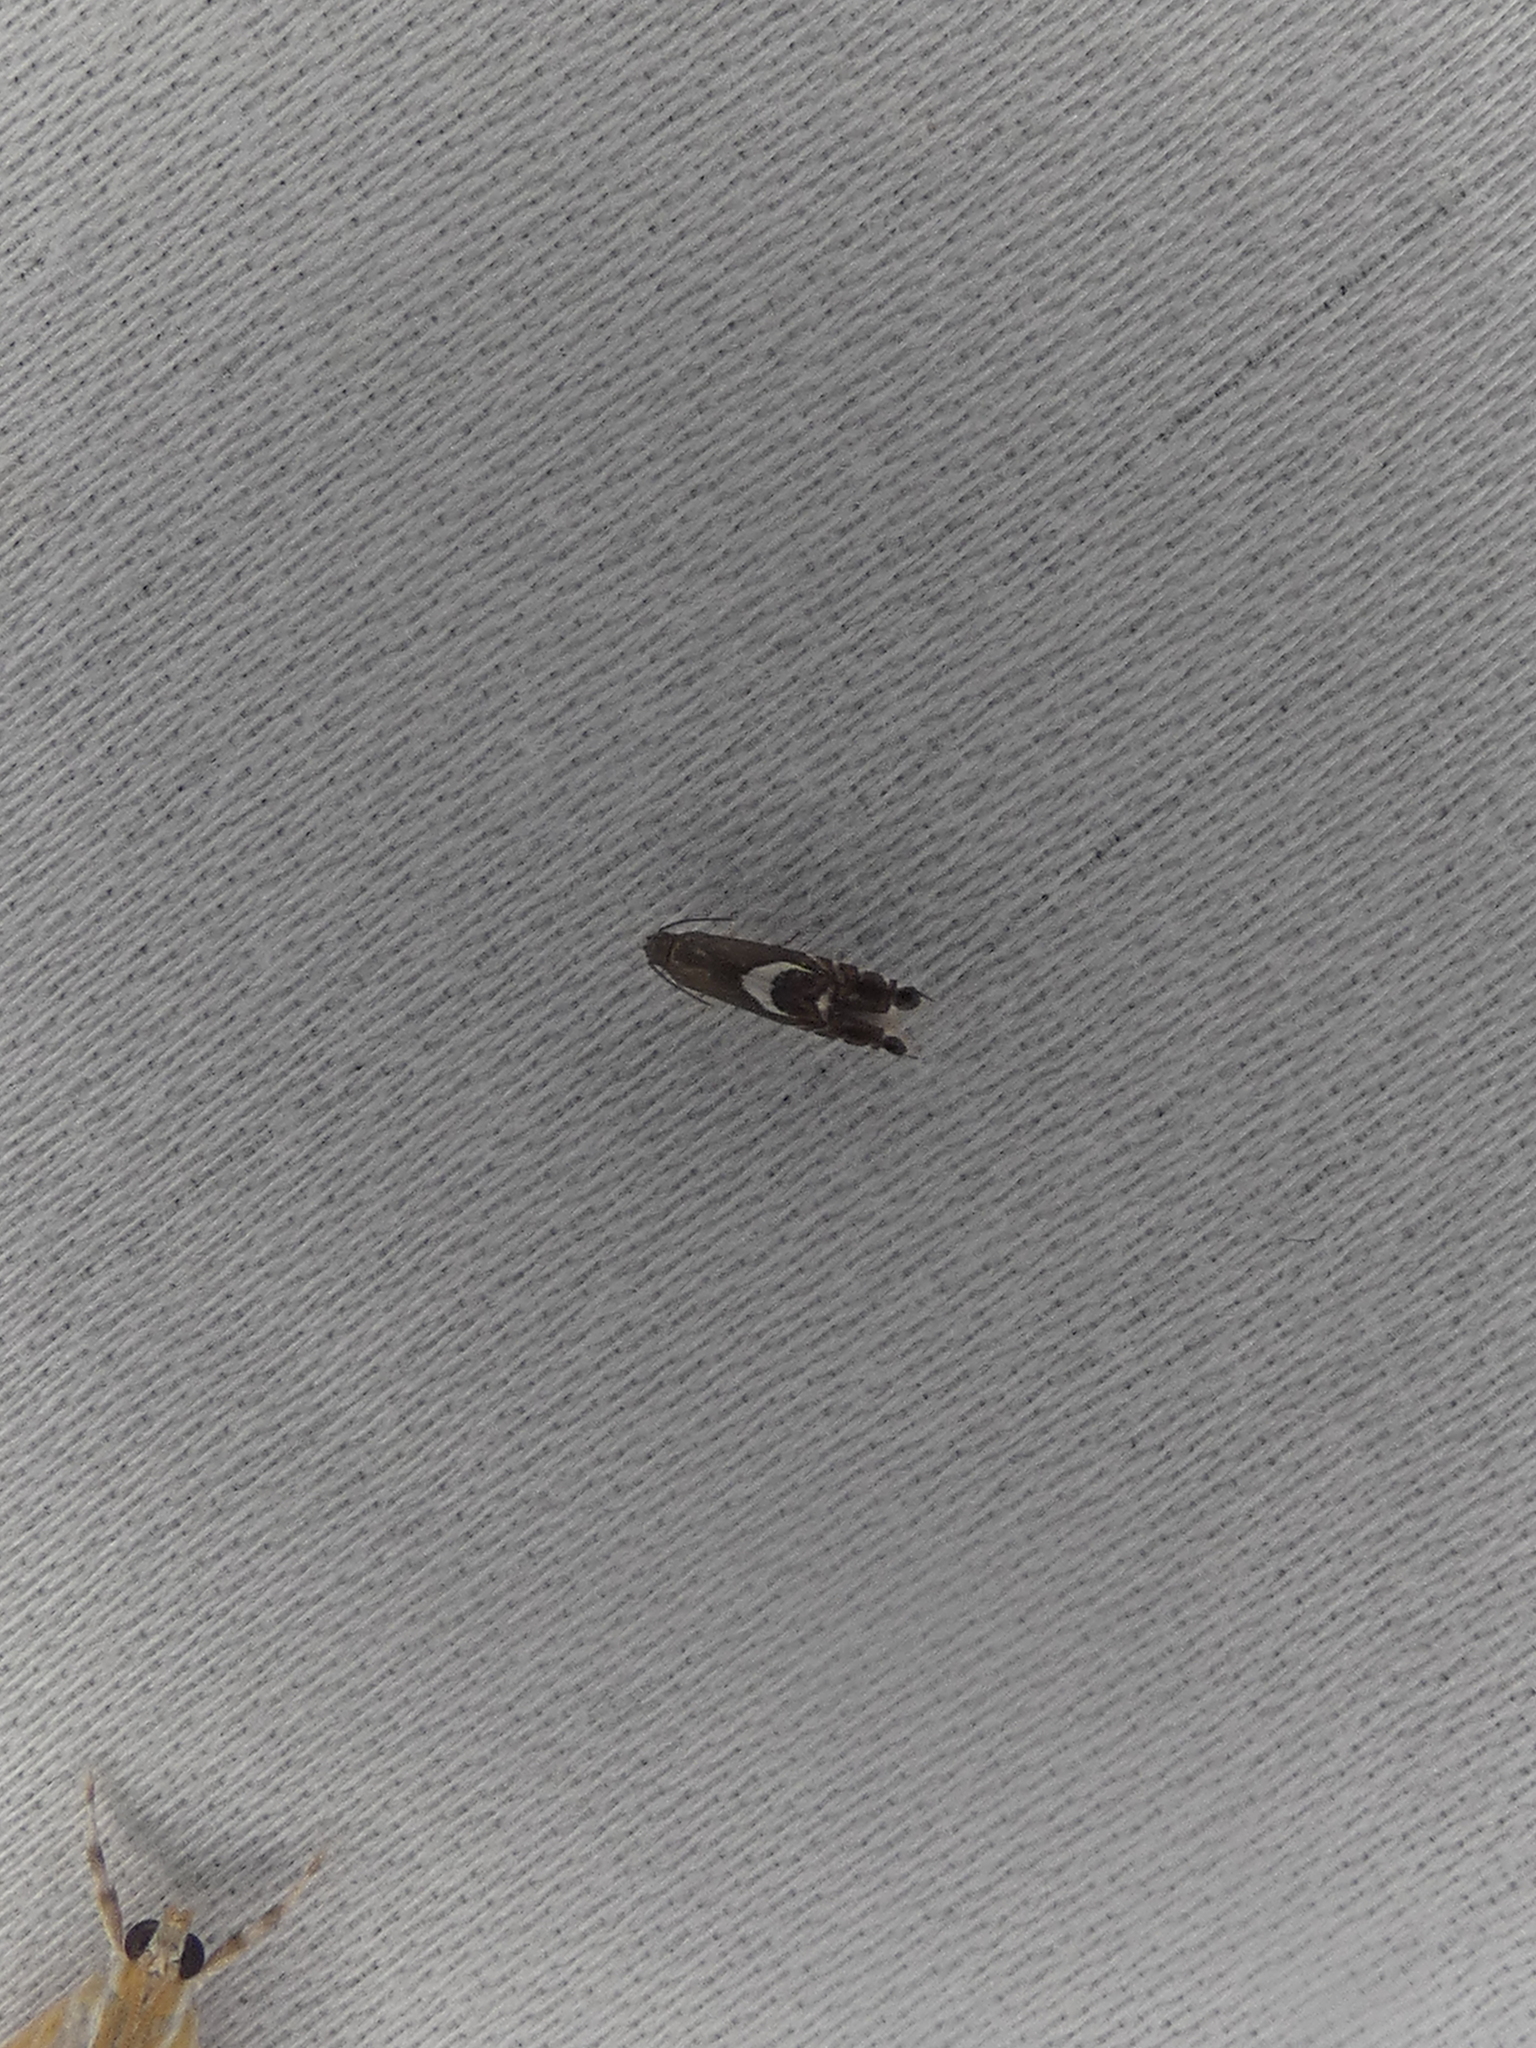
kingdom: Animalia
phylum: Arthropoda
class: Insecta
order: Lepidoptera
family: Glyphipterigidae
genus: Glyphipterix
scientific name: Glyphipterix Diploschizia impigritella
